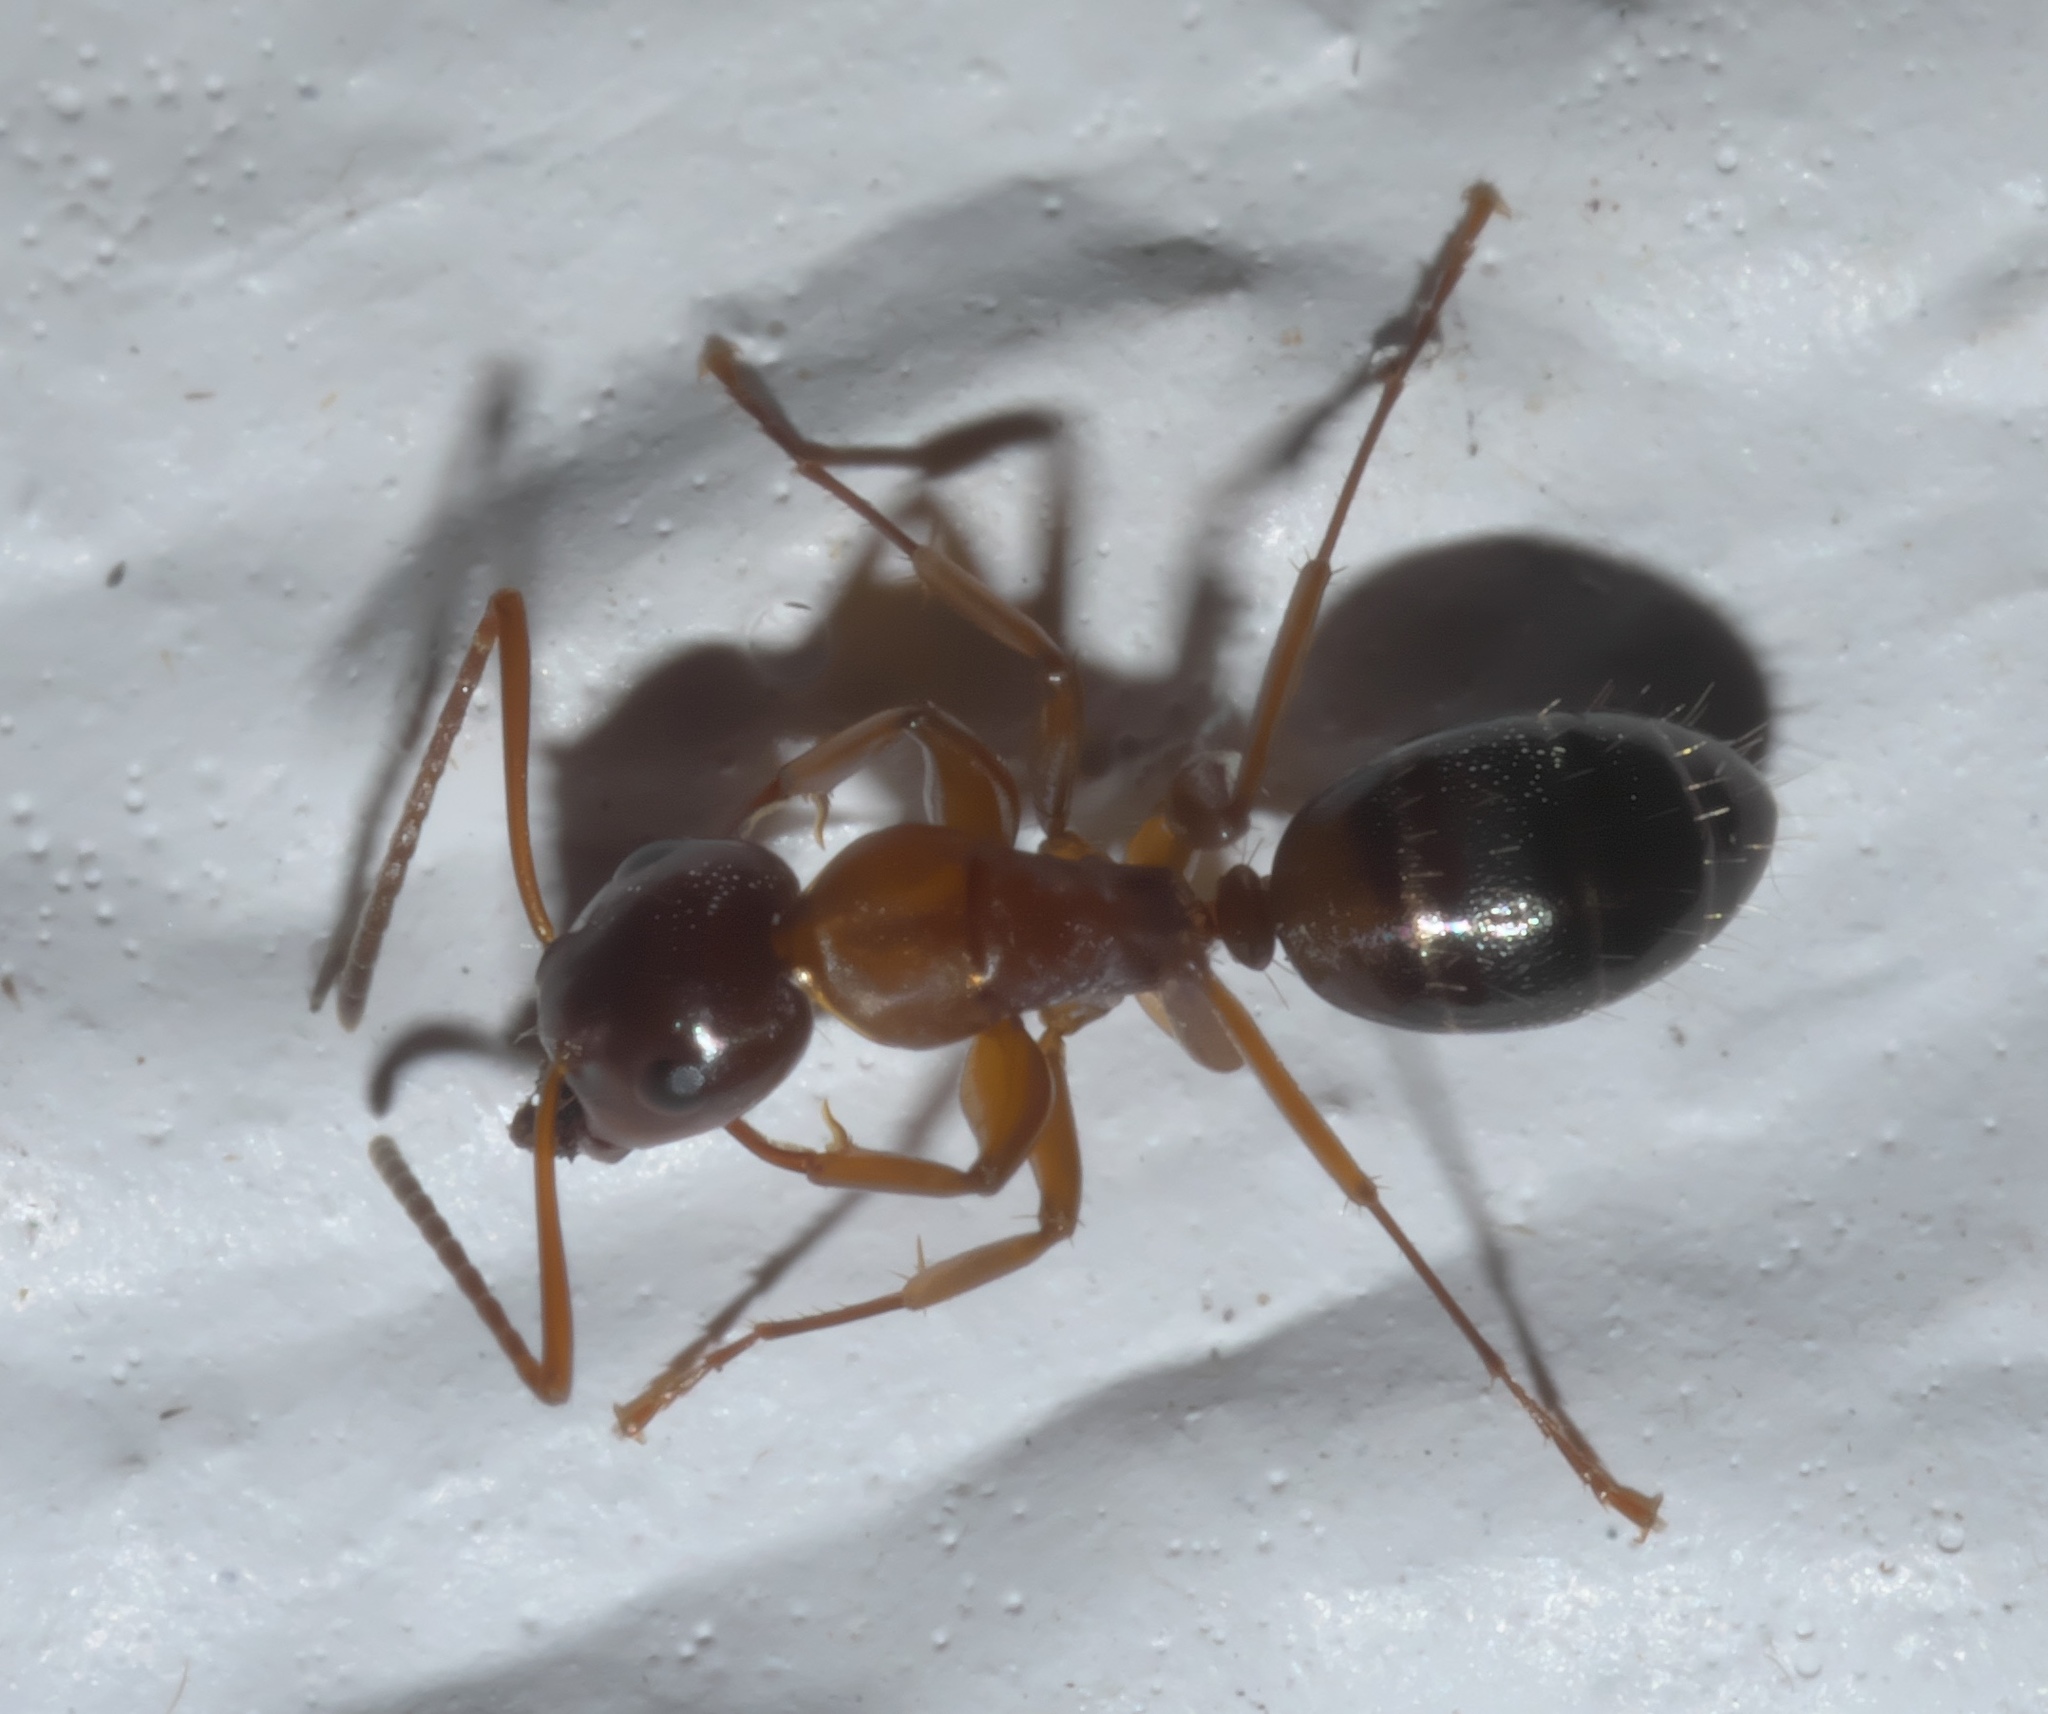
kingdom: Animalia
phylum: Arthropoda
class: Insecta
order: Hymenoptera
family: Formicidae
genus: Camponotus
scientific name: Camponotus nearcticus
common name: Smaller carpenter ant
